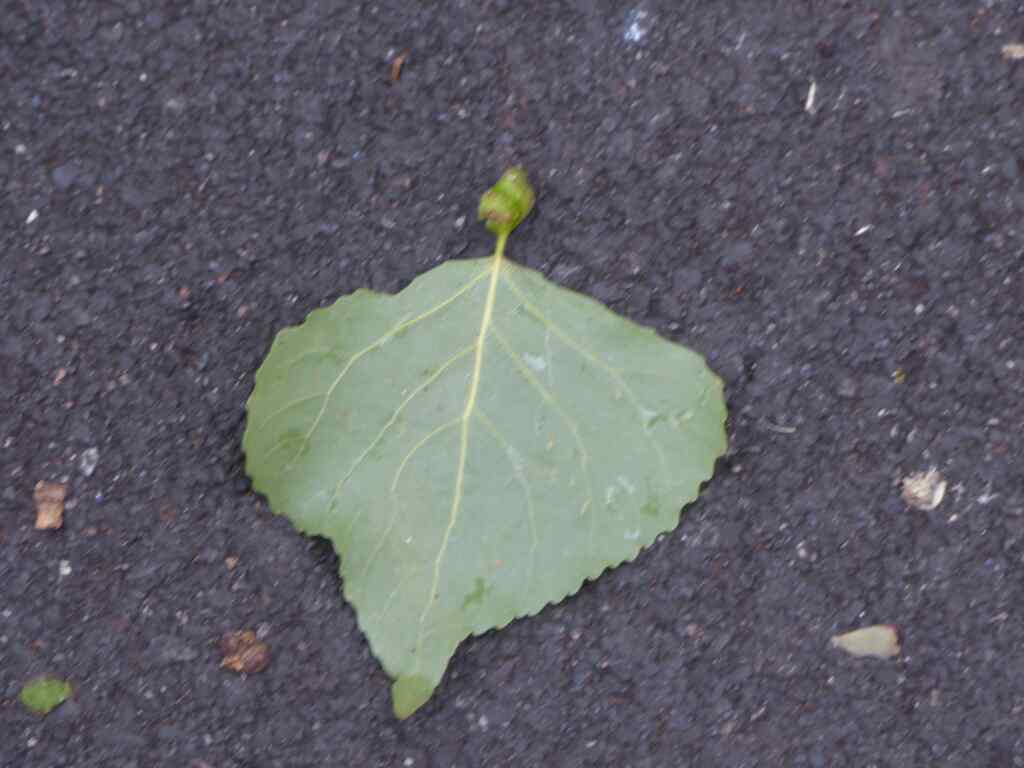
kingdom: Animalia
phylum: Arthropoda
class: Insecta
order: Hemiptera
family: Aphididae
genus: Pemphigus
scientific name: Pemphigus spyrothecae
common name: Aphid
